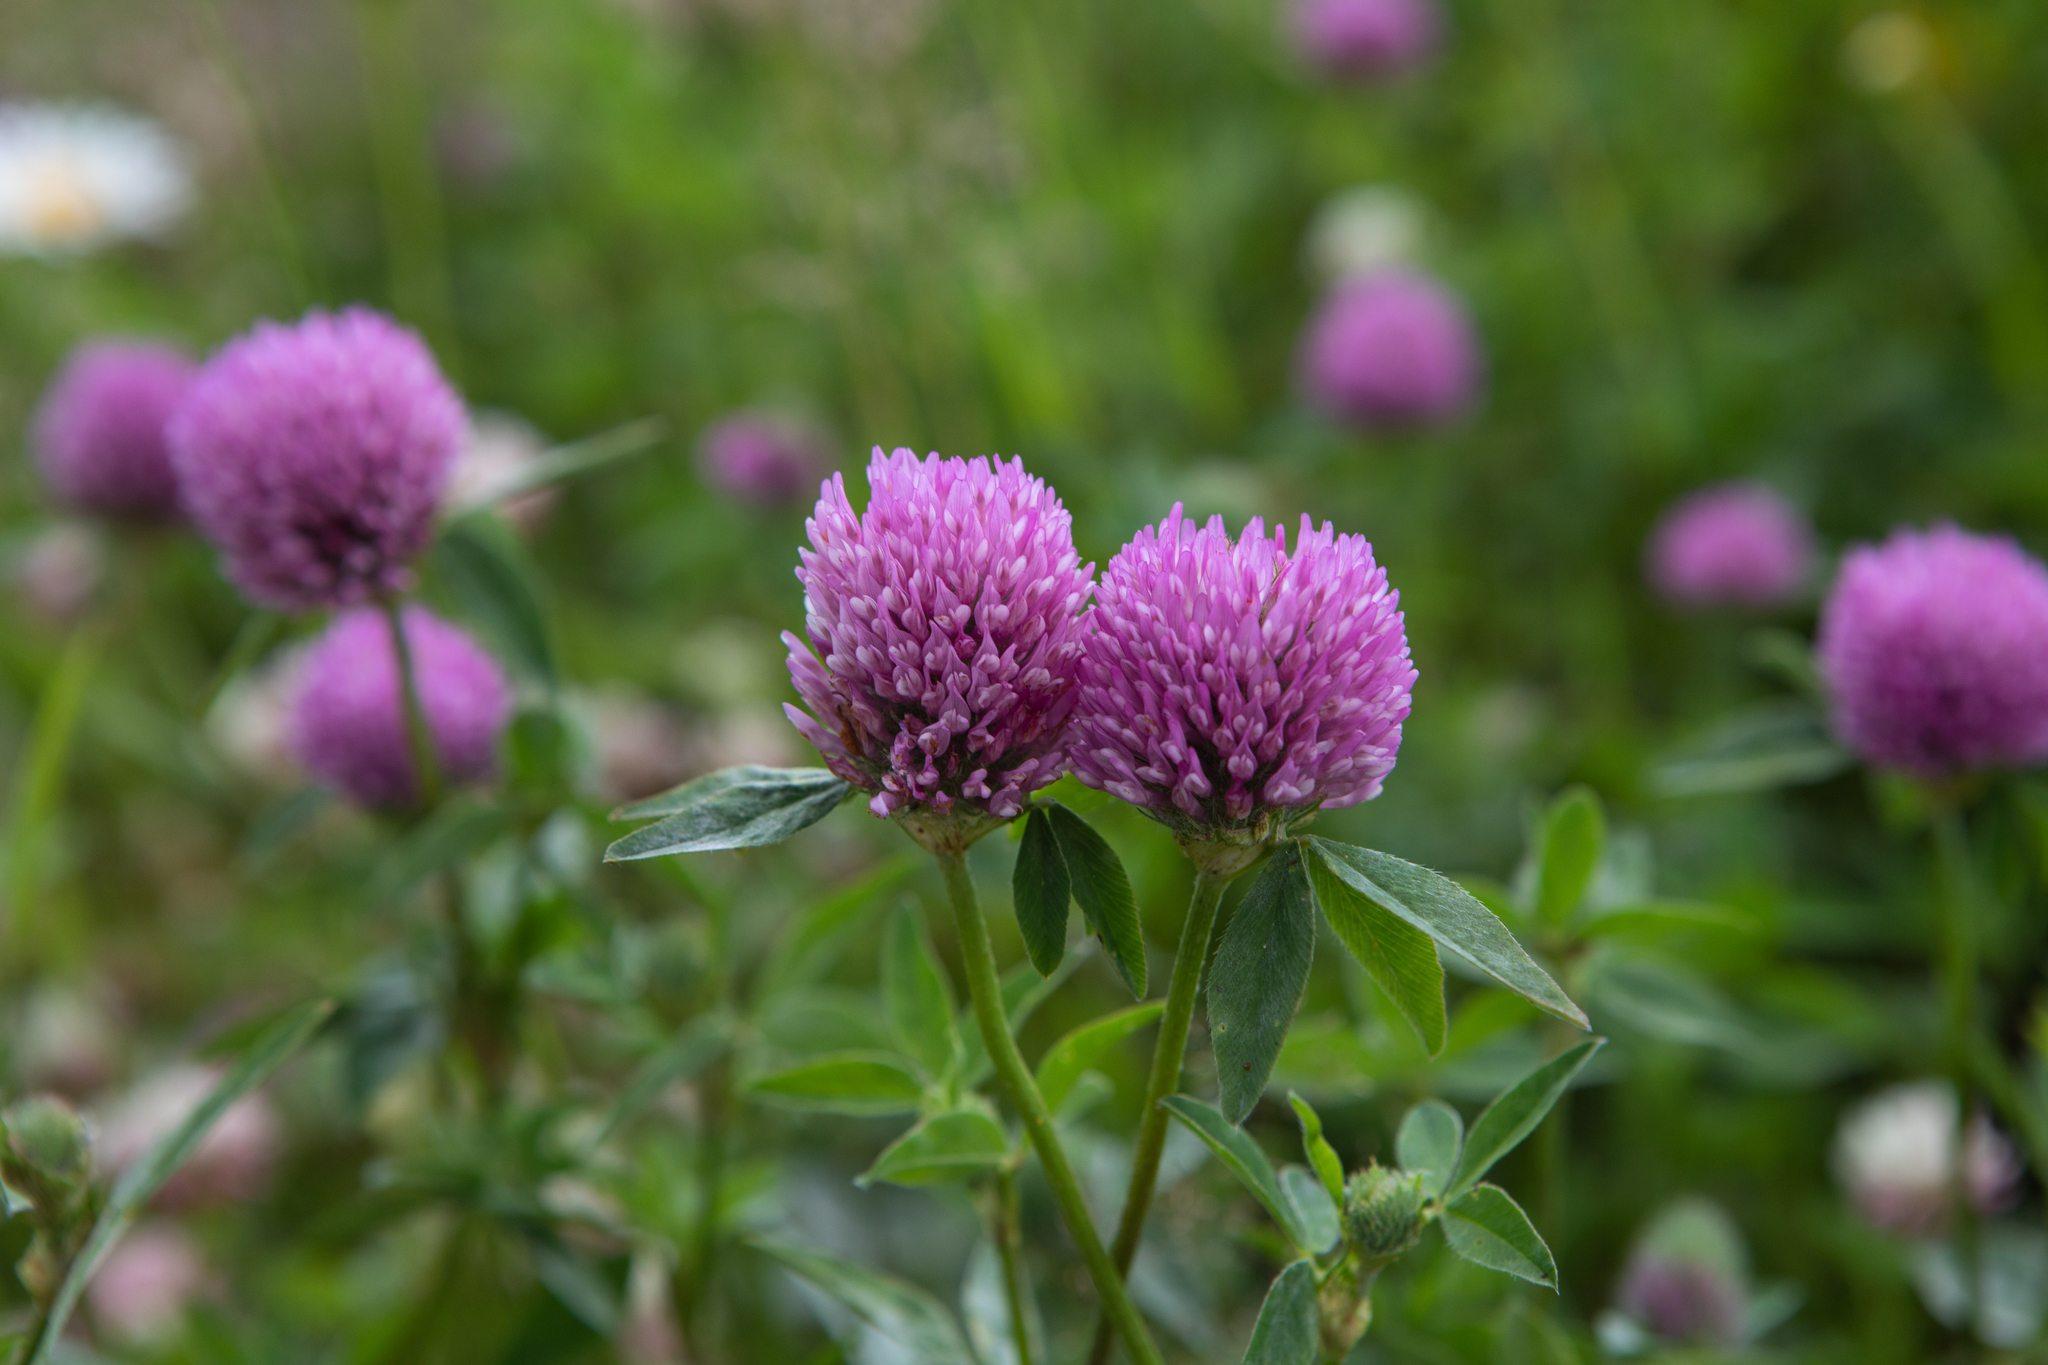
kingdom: Plantae
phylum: Tracheophyta
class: Magnoliopsida
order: Fabales
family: Fabaceae
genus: Trifolium
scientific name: Trifolium pratense
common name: Red clover
